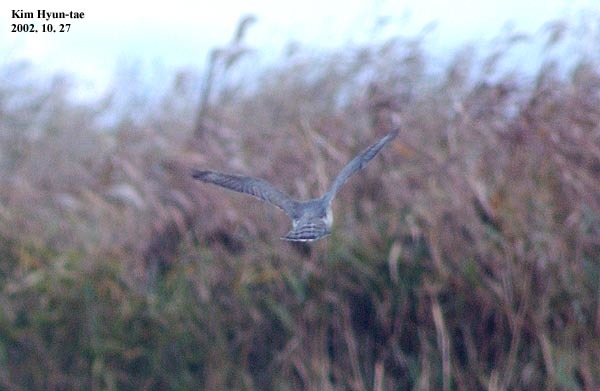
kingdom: Animalia
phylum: Chordata
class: Aves
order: Accipitriformes
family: Accipitridae
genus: Accipiter
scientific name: Accipiter gentilis
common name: Northern goshawk
